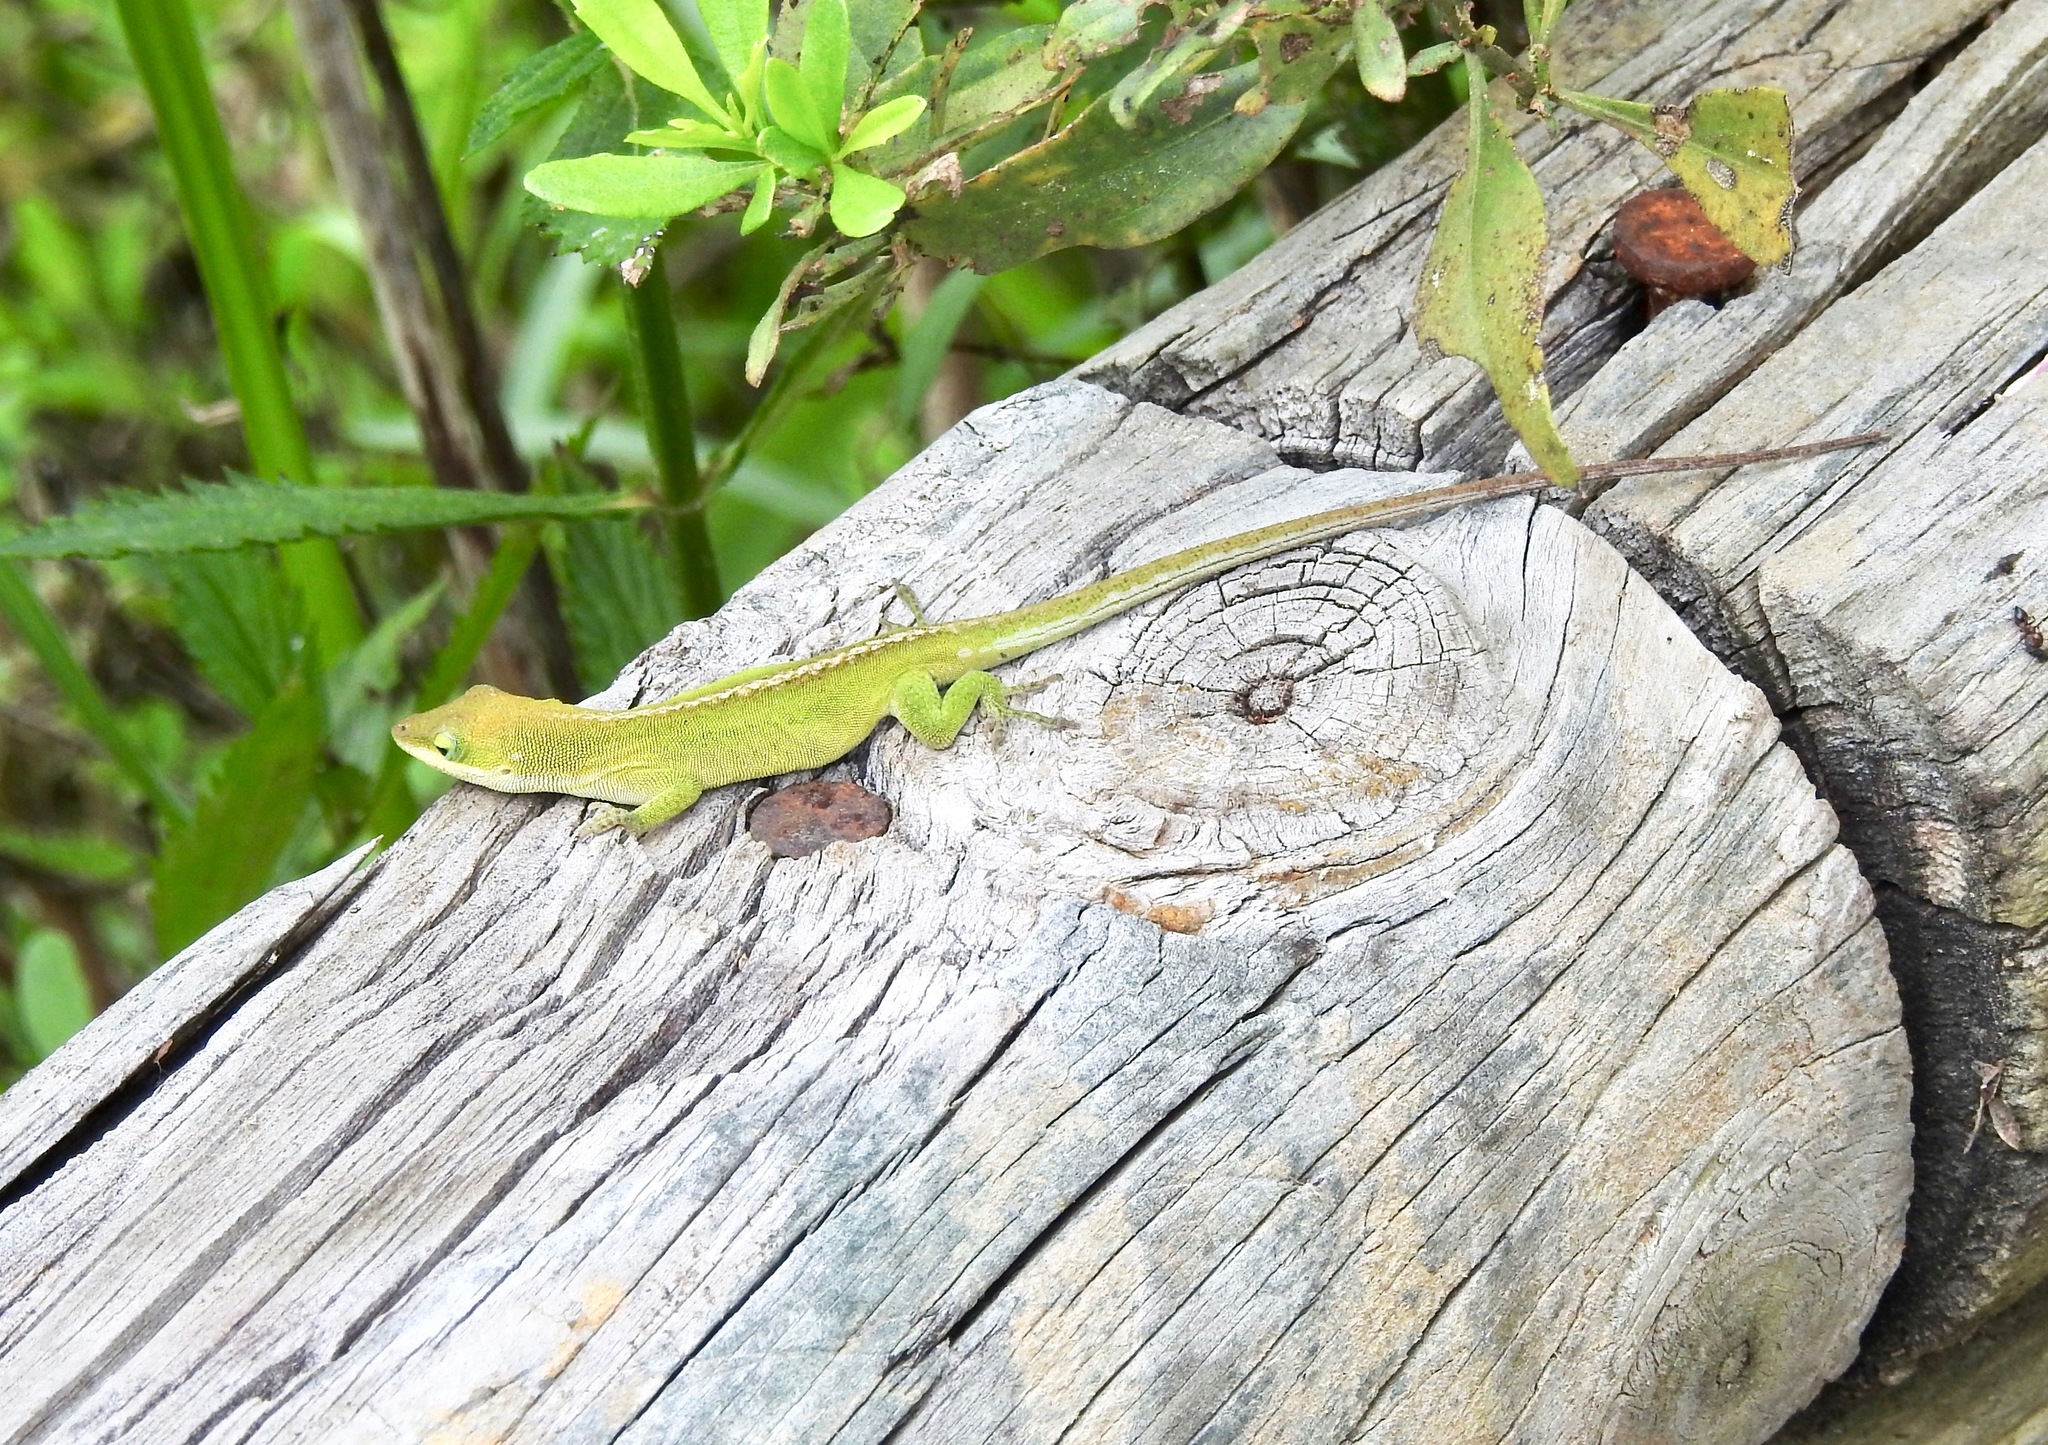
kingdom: Animalia
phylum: Chordata
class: Squamata
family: Dactyloidae
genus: Anolis
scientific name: Anolis carolinensis
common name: Green anole
